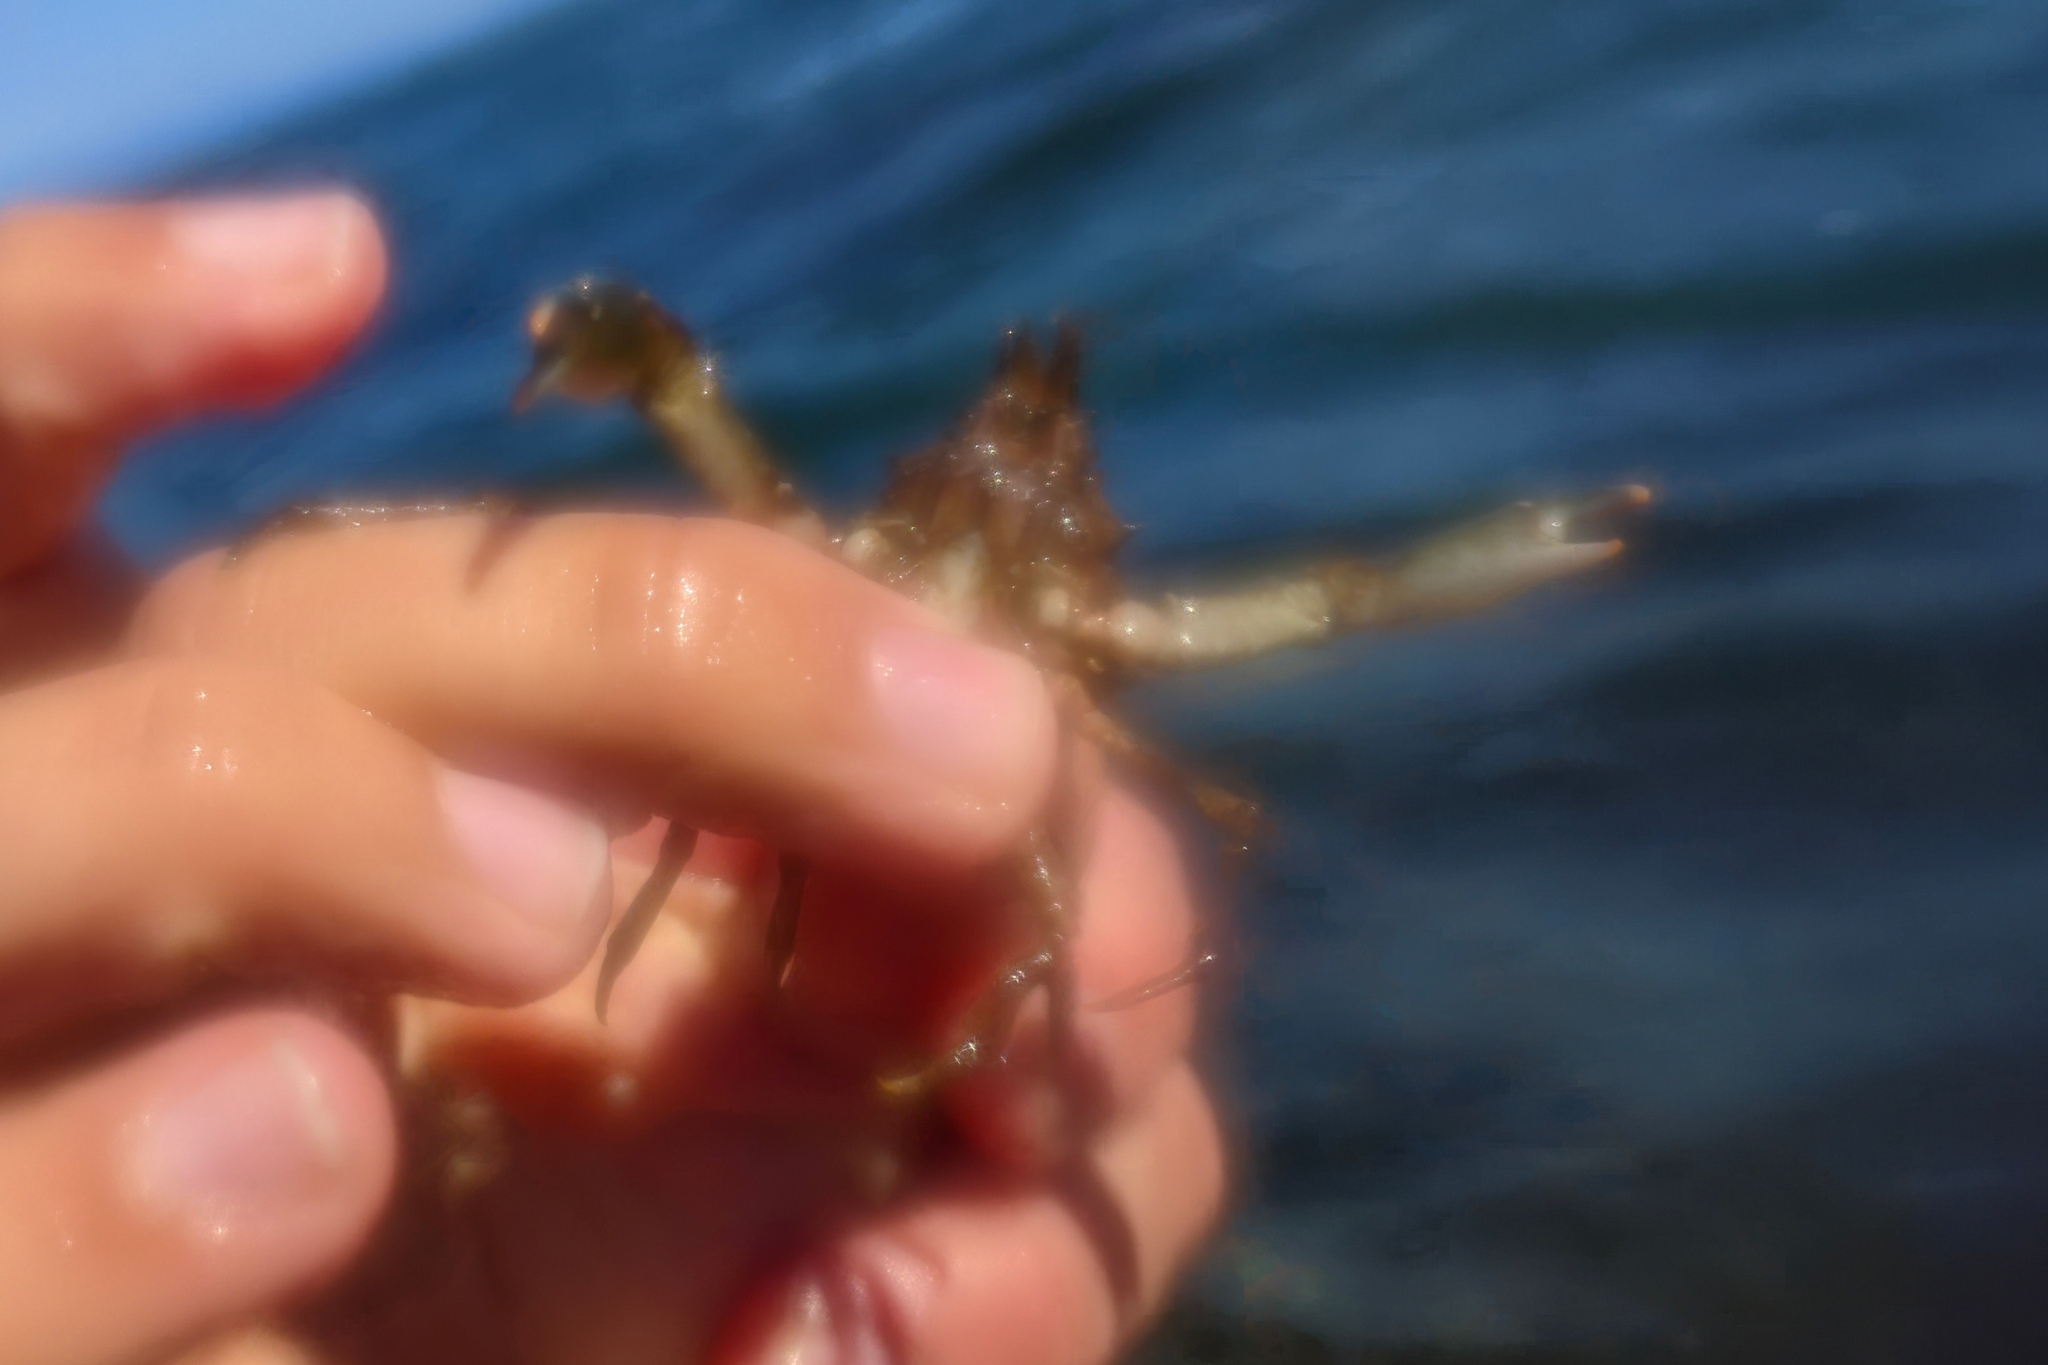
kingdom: Animalia
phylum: Arthropoda
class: Malacostraca
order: Decapoda
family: Epialtidae
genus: Scyra
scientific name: Scyra quadridens
